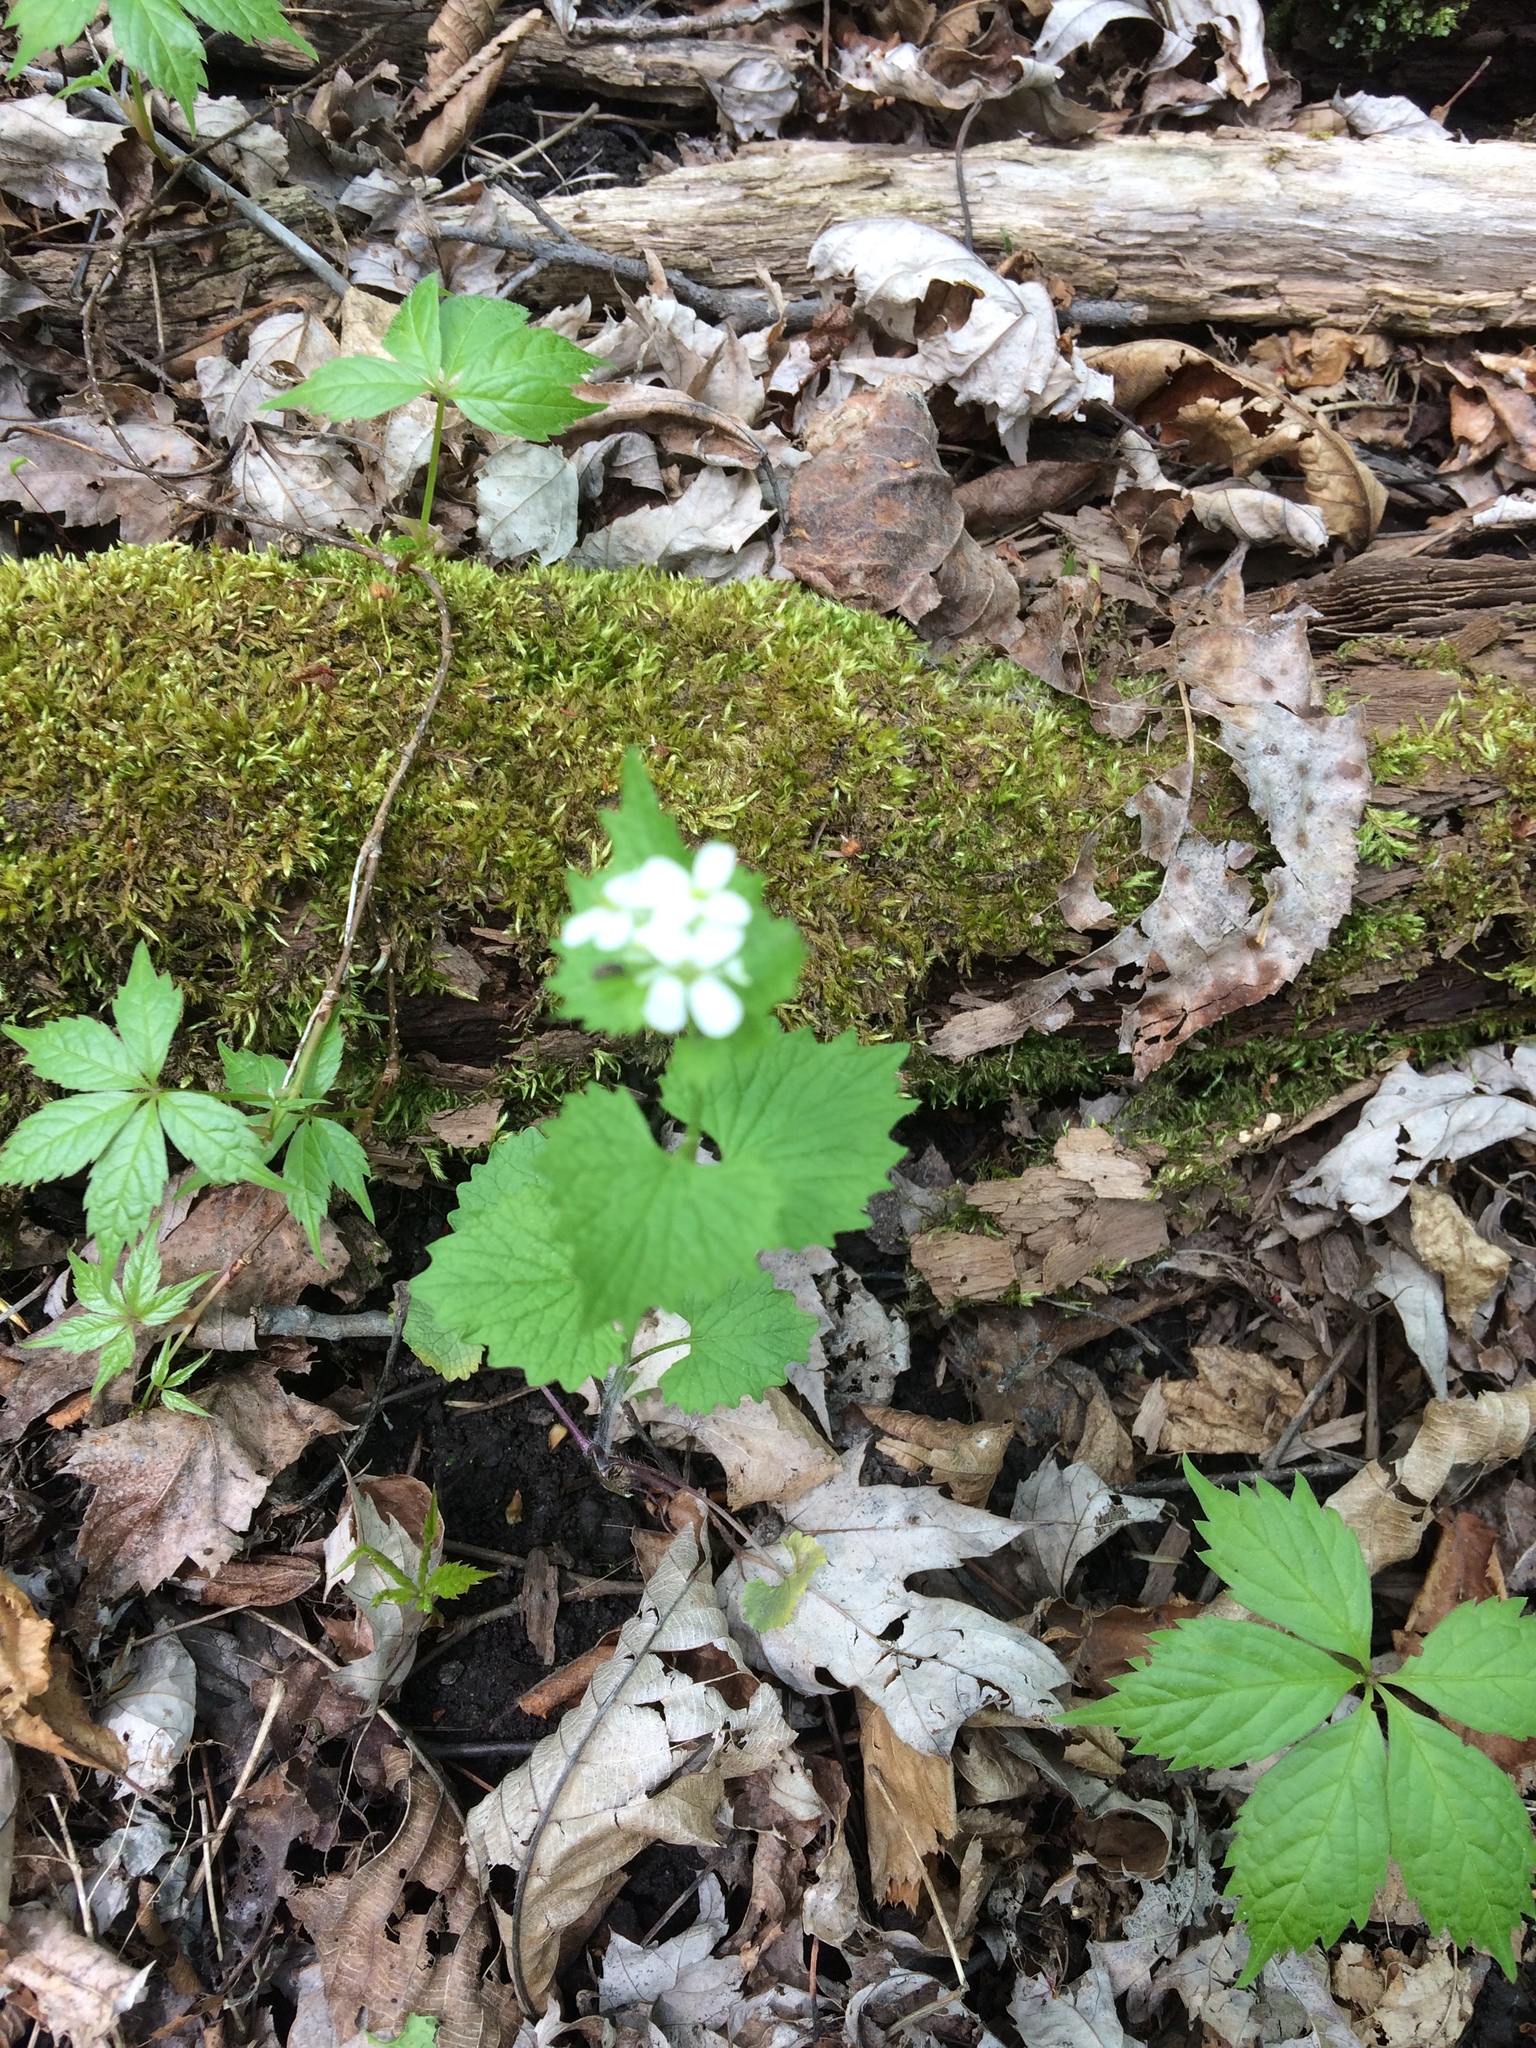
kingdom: Plantae
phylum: Tracheophyta
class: Magnoliopsida
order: Brassicales
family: Brassicaceae
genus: Alliaria
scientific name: Alliaria petiolata
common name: Garlic mustard
